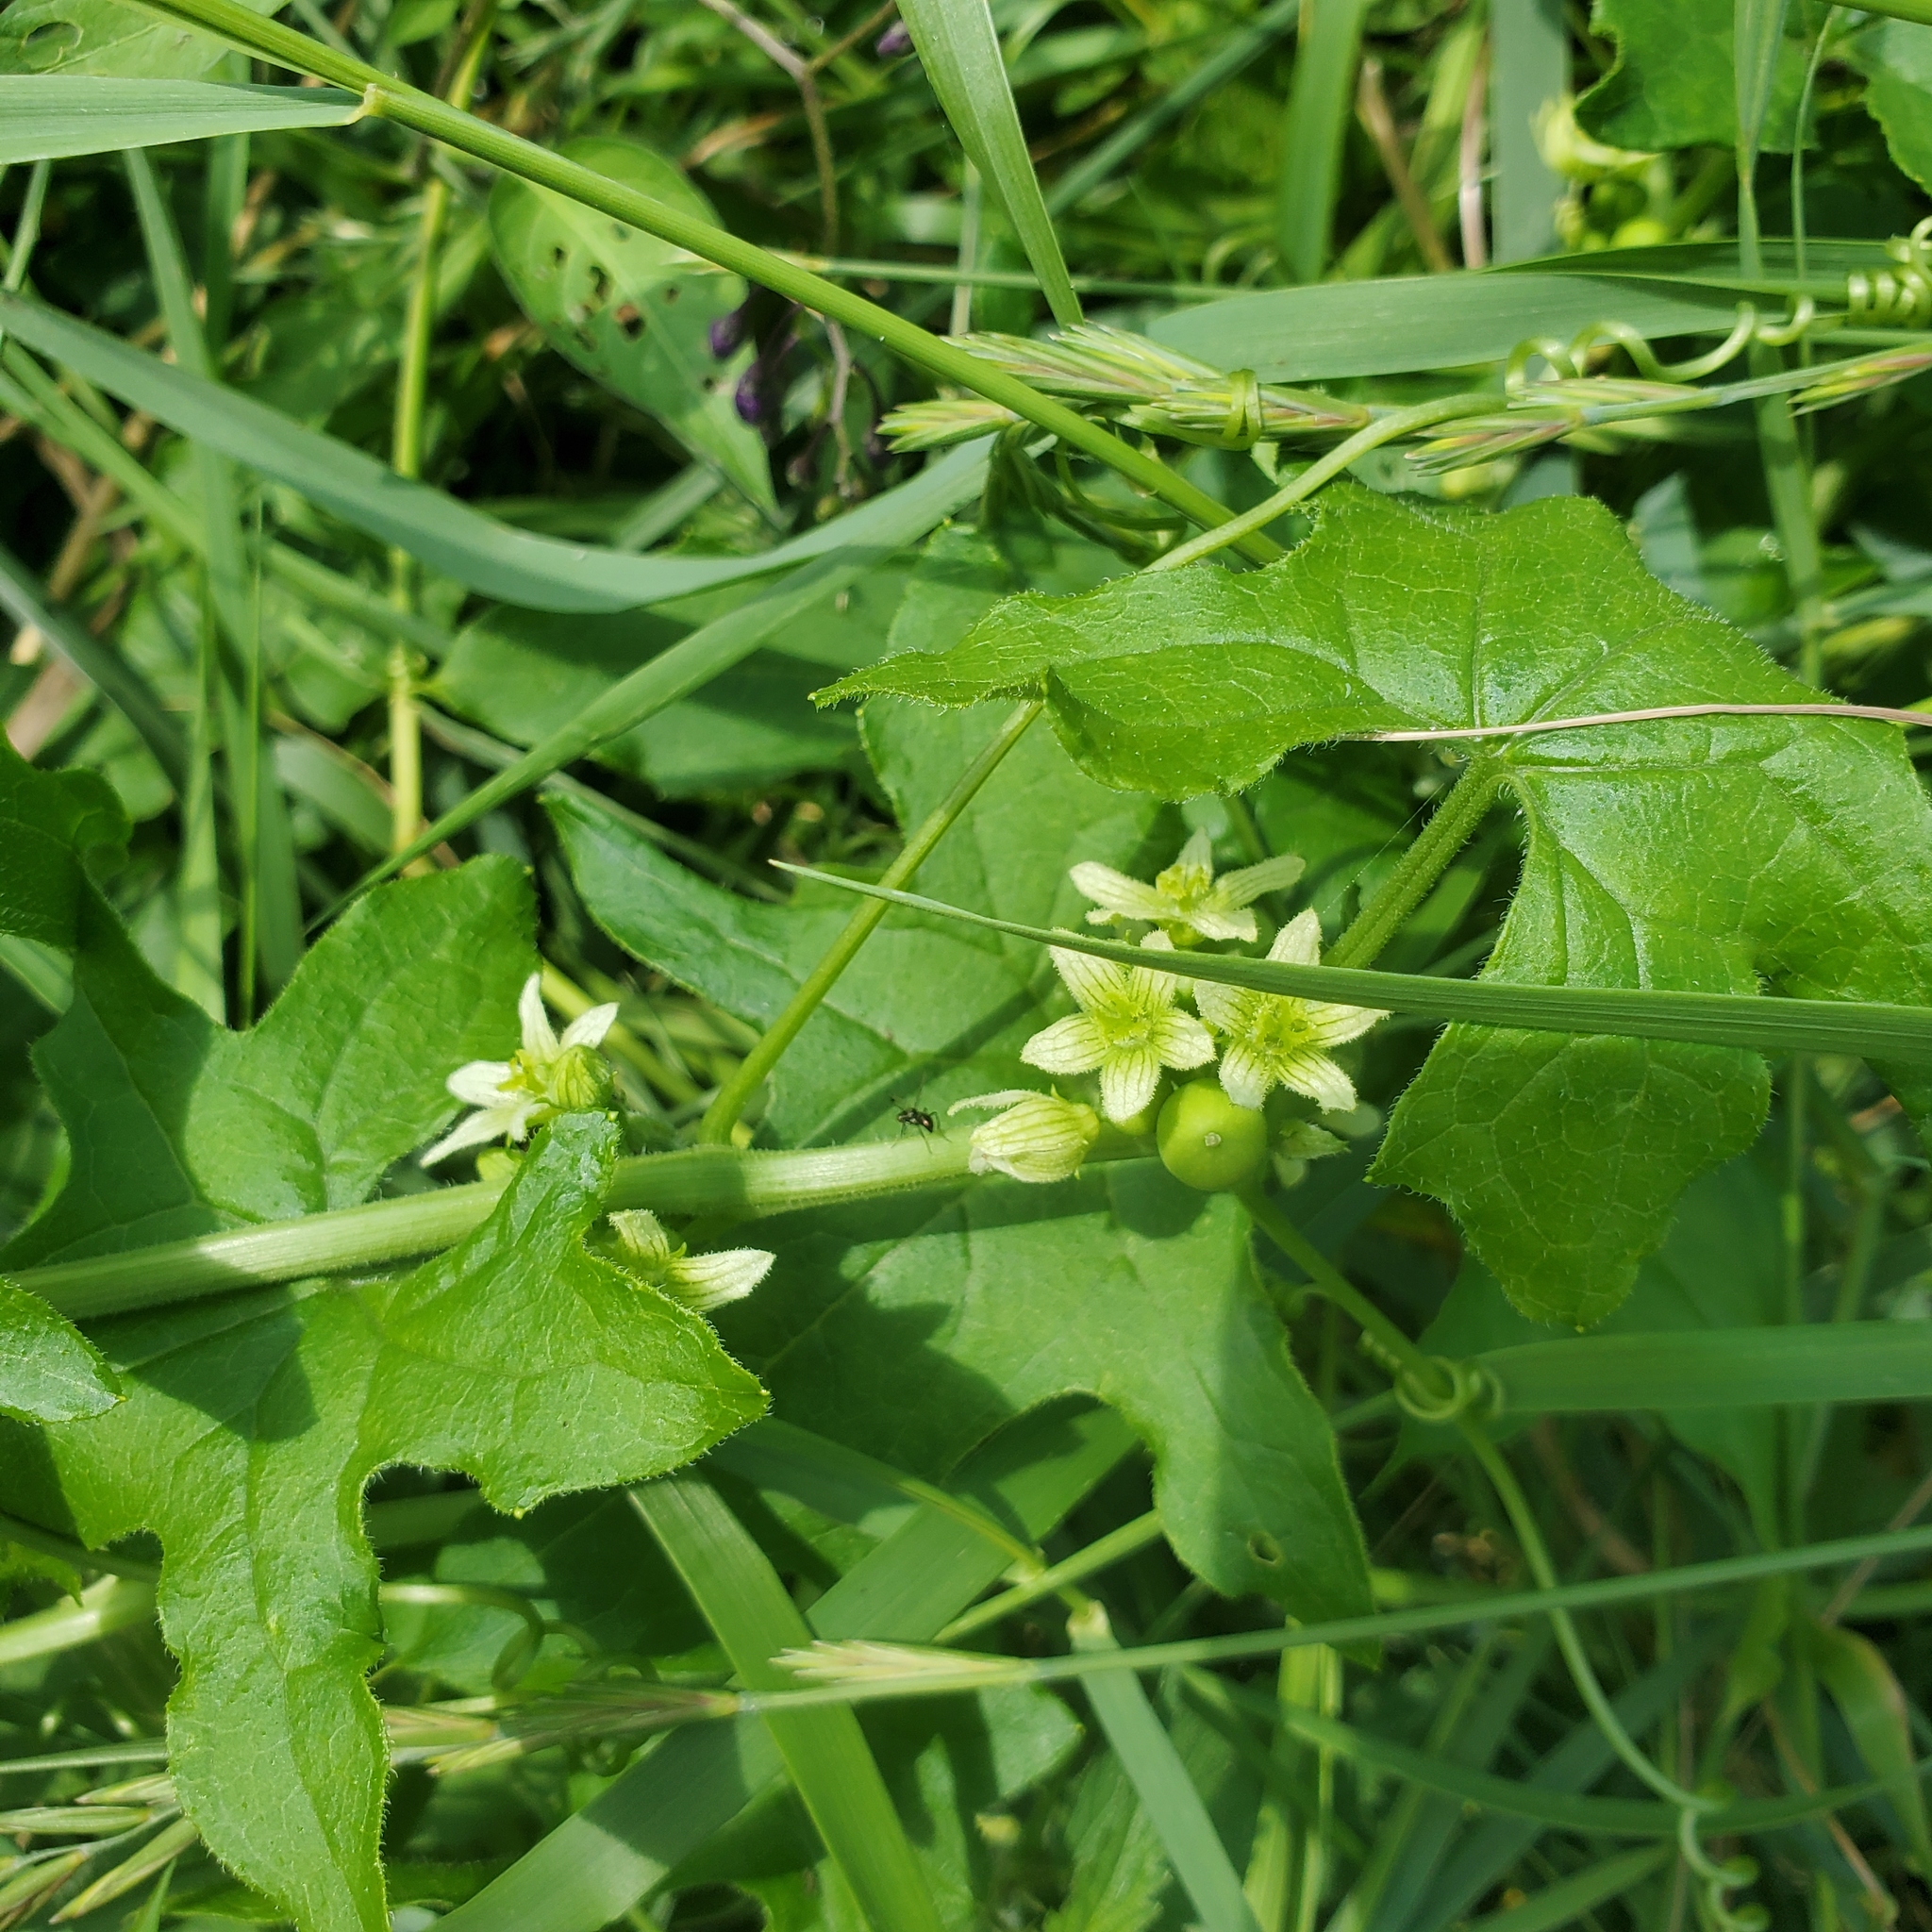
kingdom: Plantae
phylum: Tracheophyta
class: Magnoliopsida
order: Cucurbitales
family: Cucurbitaceae
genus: Bryonia
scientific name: Bryonia cretica
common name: Cretan bryony
